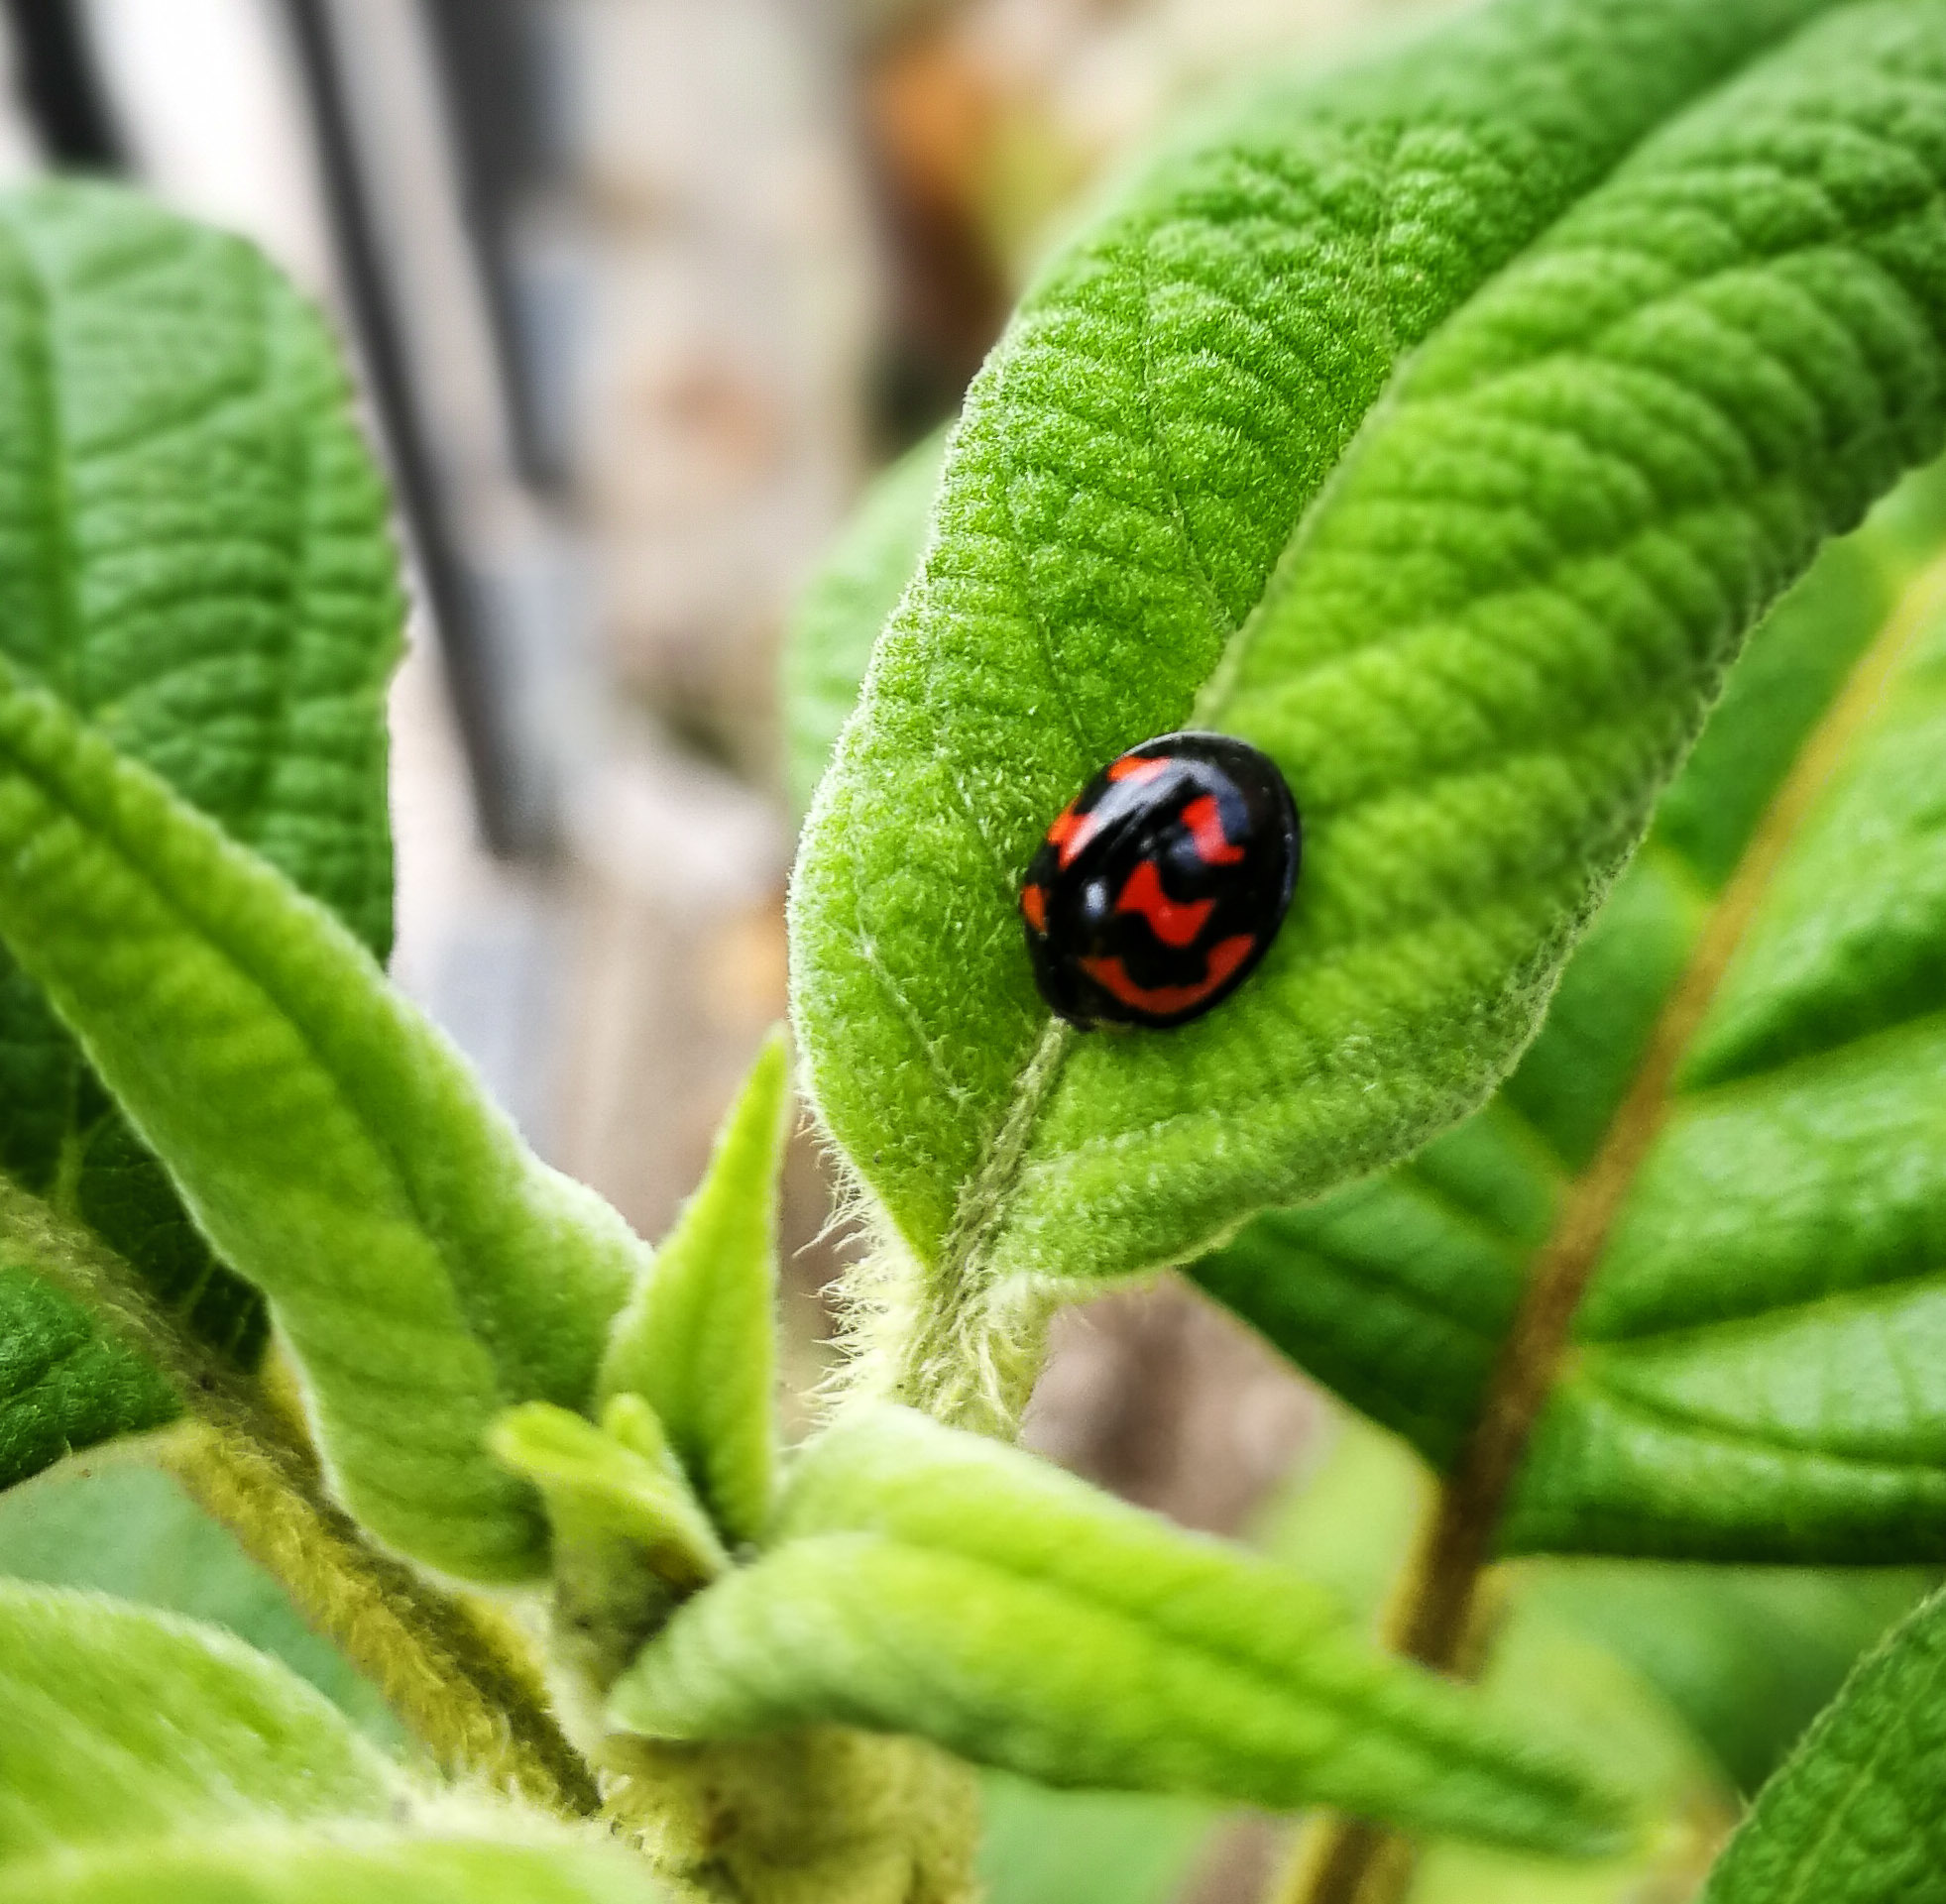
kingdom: Animalia
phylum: Arthropoda
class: Insecta
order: Coleoptera
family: Coccinellidae
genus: Cheilomenes
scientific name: Cheilomenes sexmaculata
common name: Ladybird beetle
